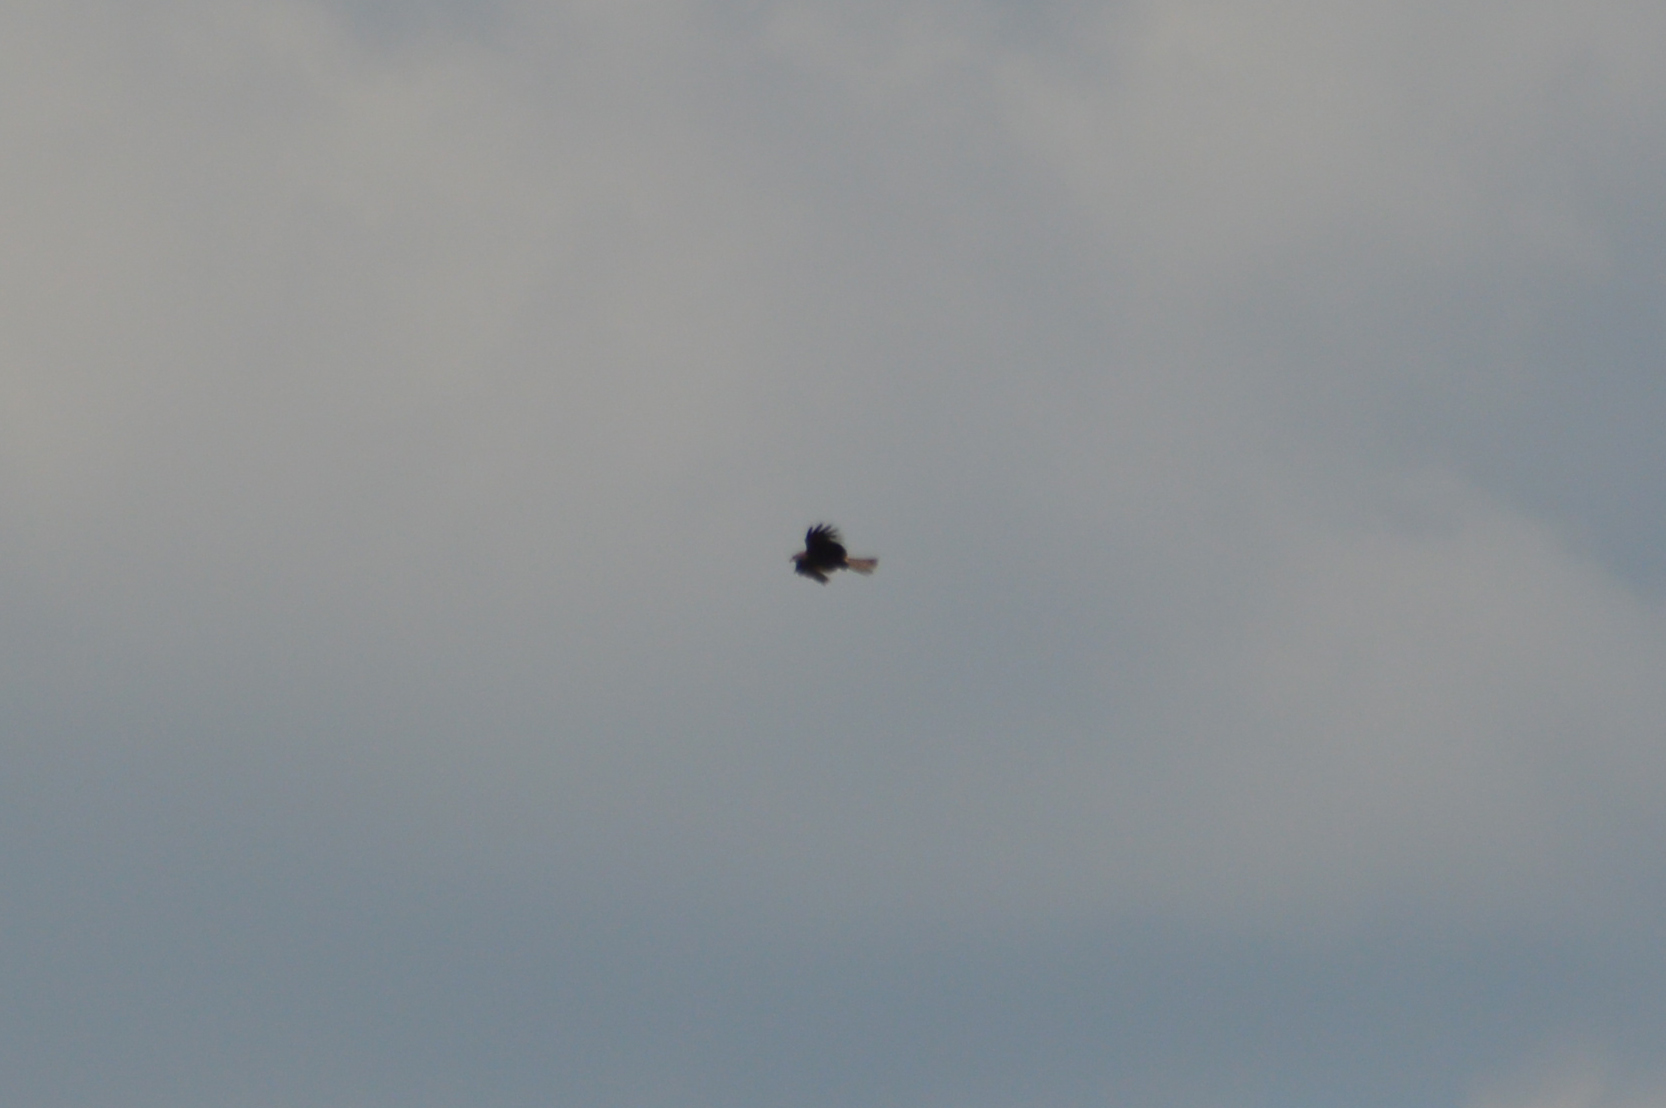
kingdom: Animalia
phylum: Chordata
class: Aves
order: Accipitriformes
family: Accipitridae
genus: Milvus
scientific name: Milvus migrans
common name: Black kite
